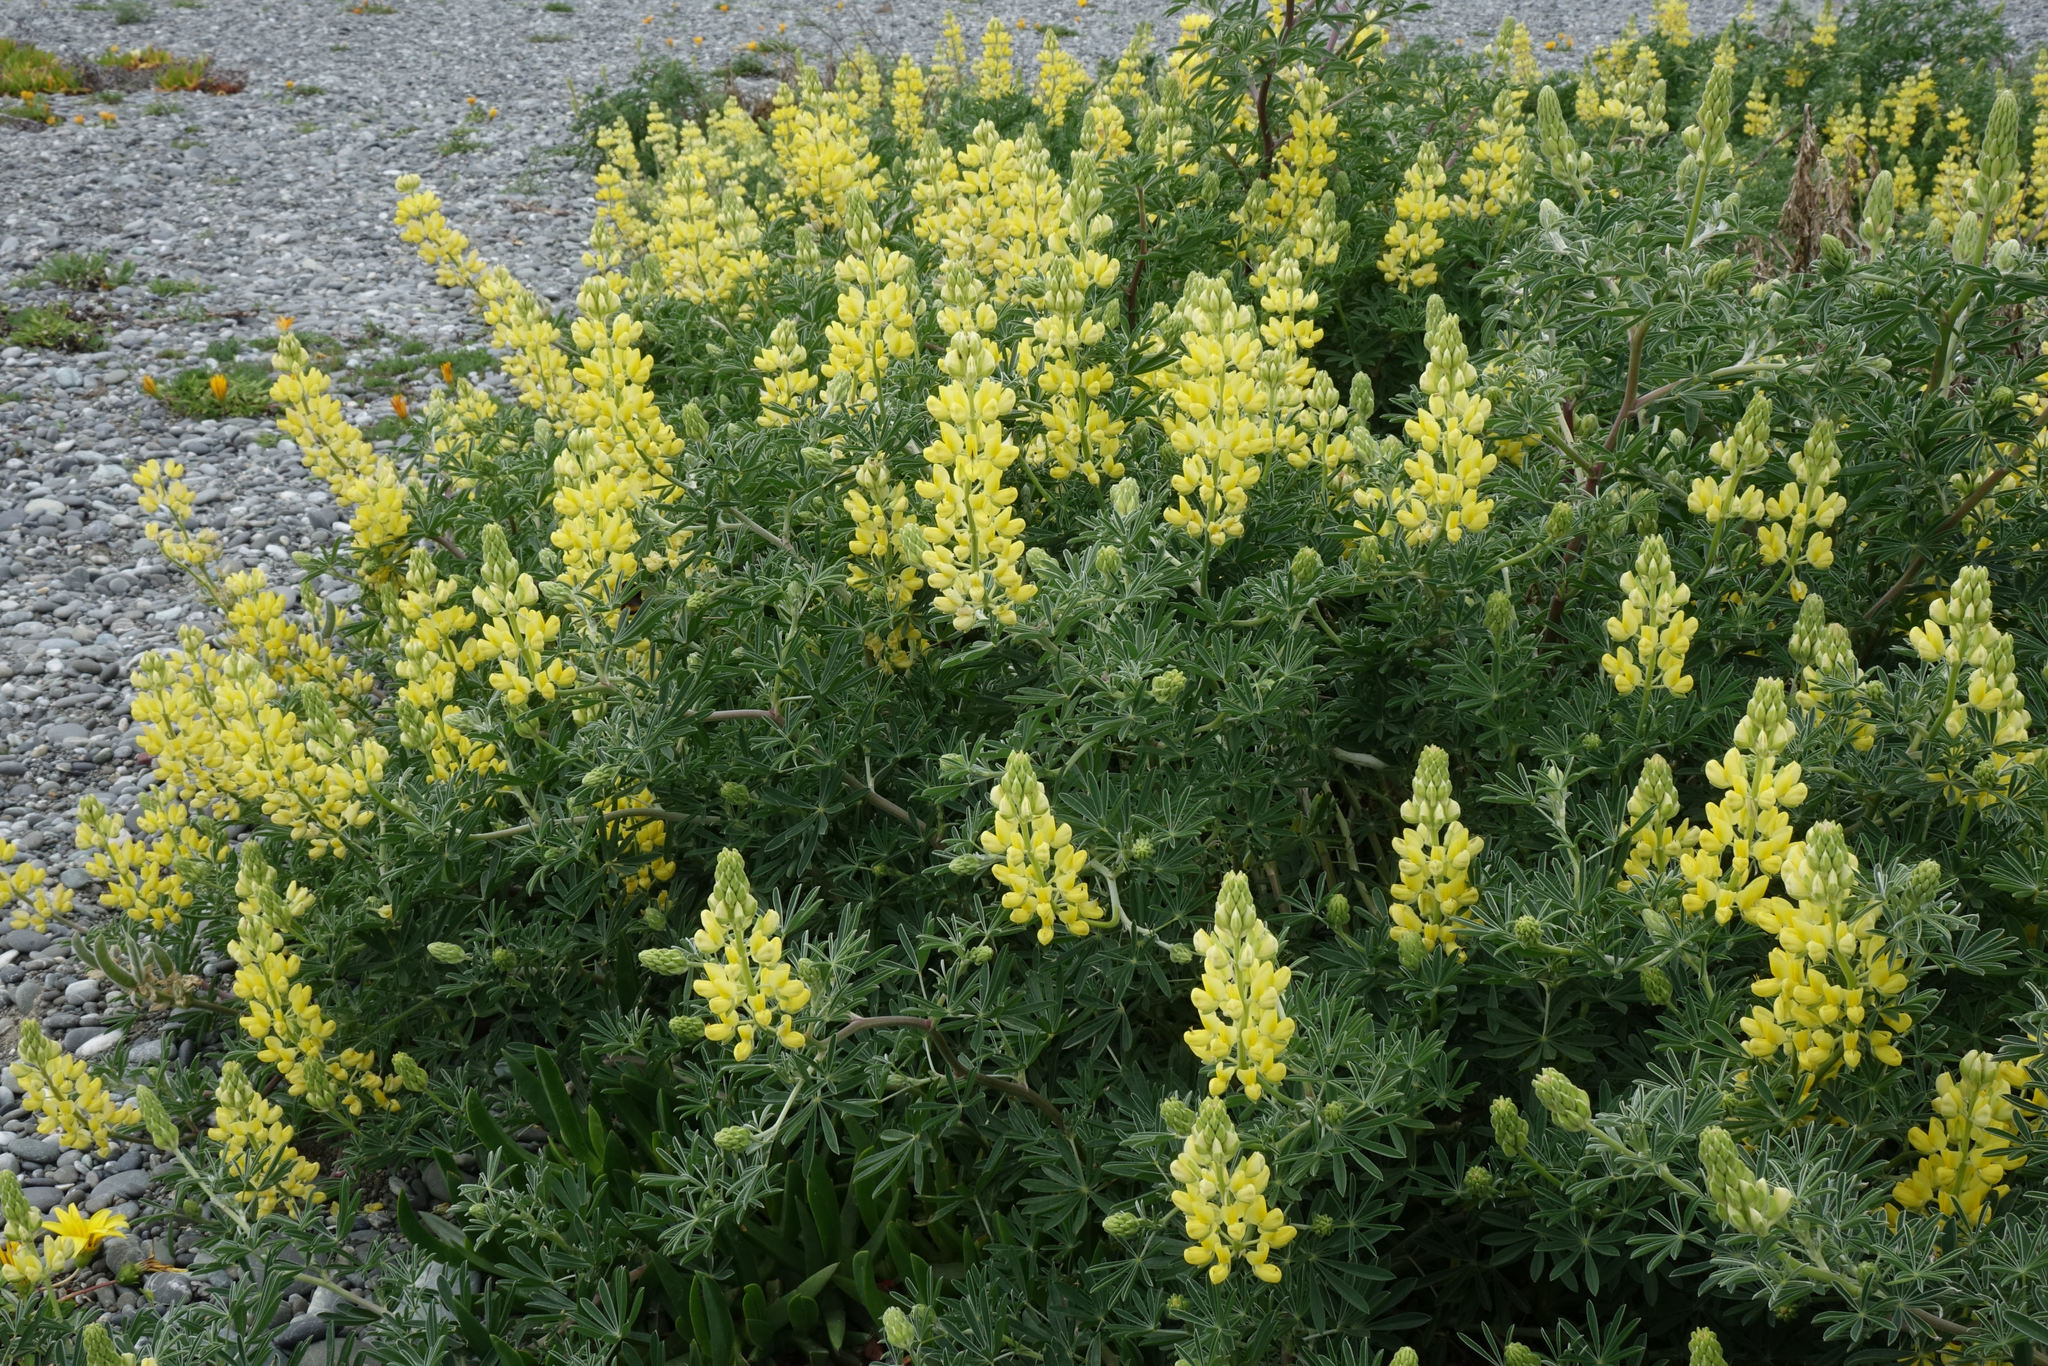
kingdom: Plantae
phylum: Tracheophyta
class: Magnoliopsida
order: Fabales
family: Fabaceae
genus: Lupinus
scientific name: Lupinus arboreus
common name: Yellow bush lupine
